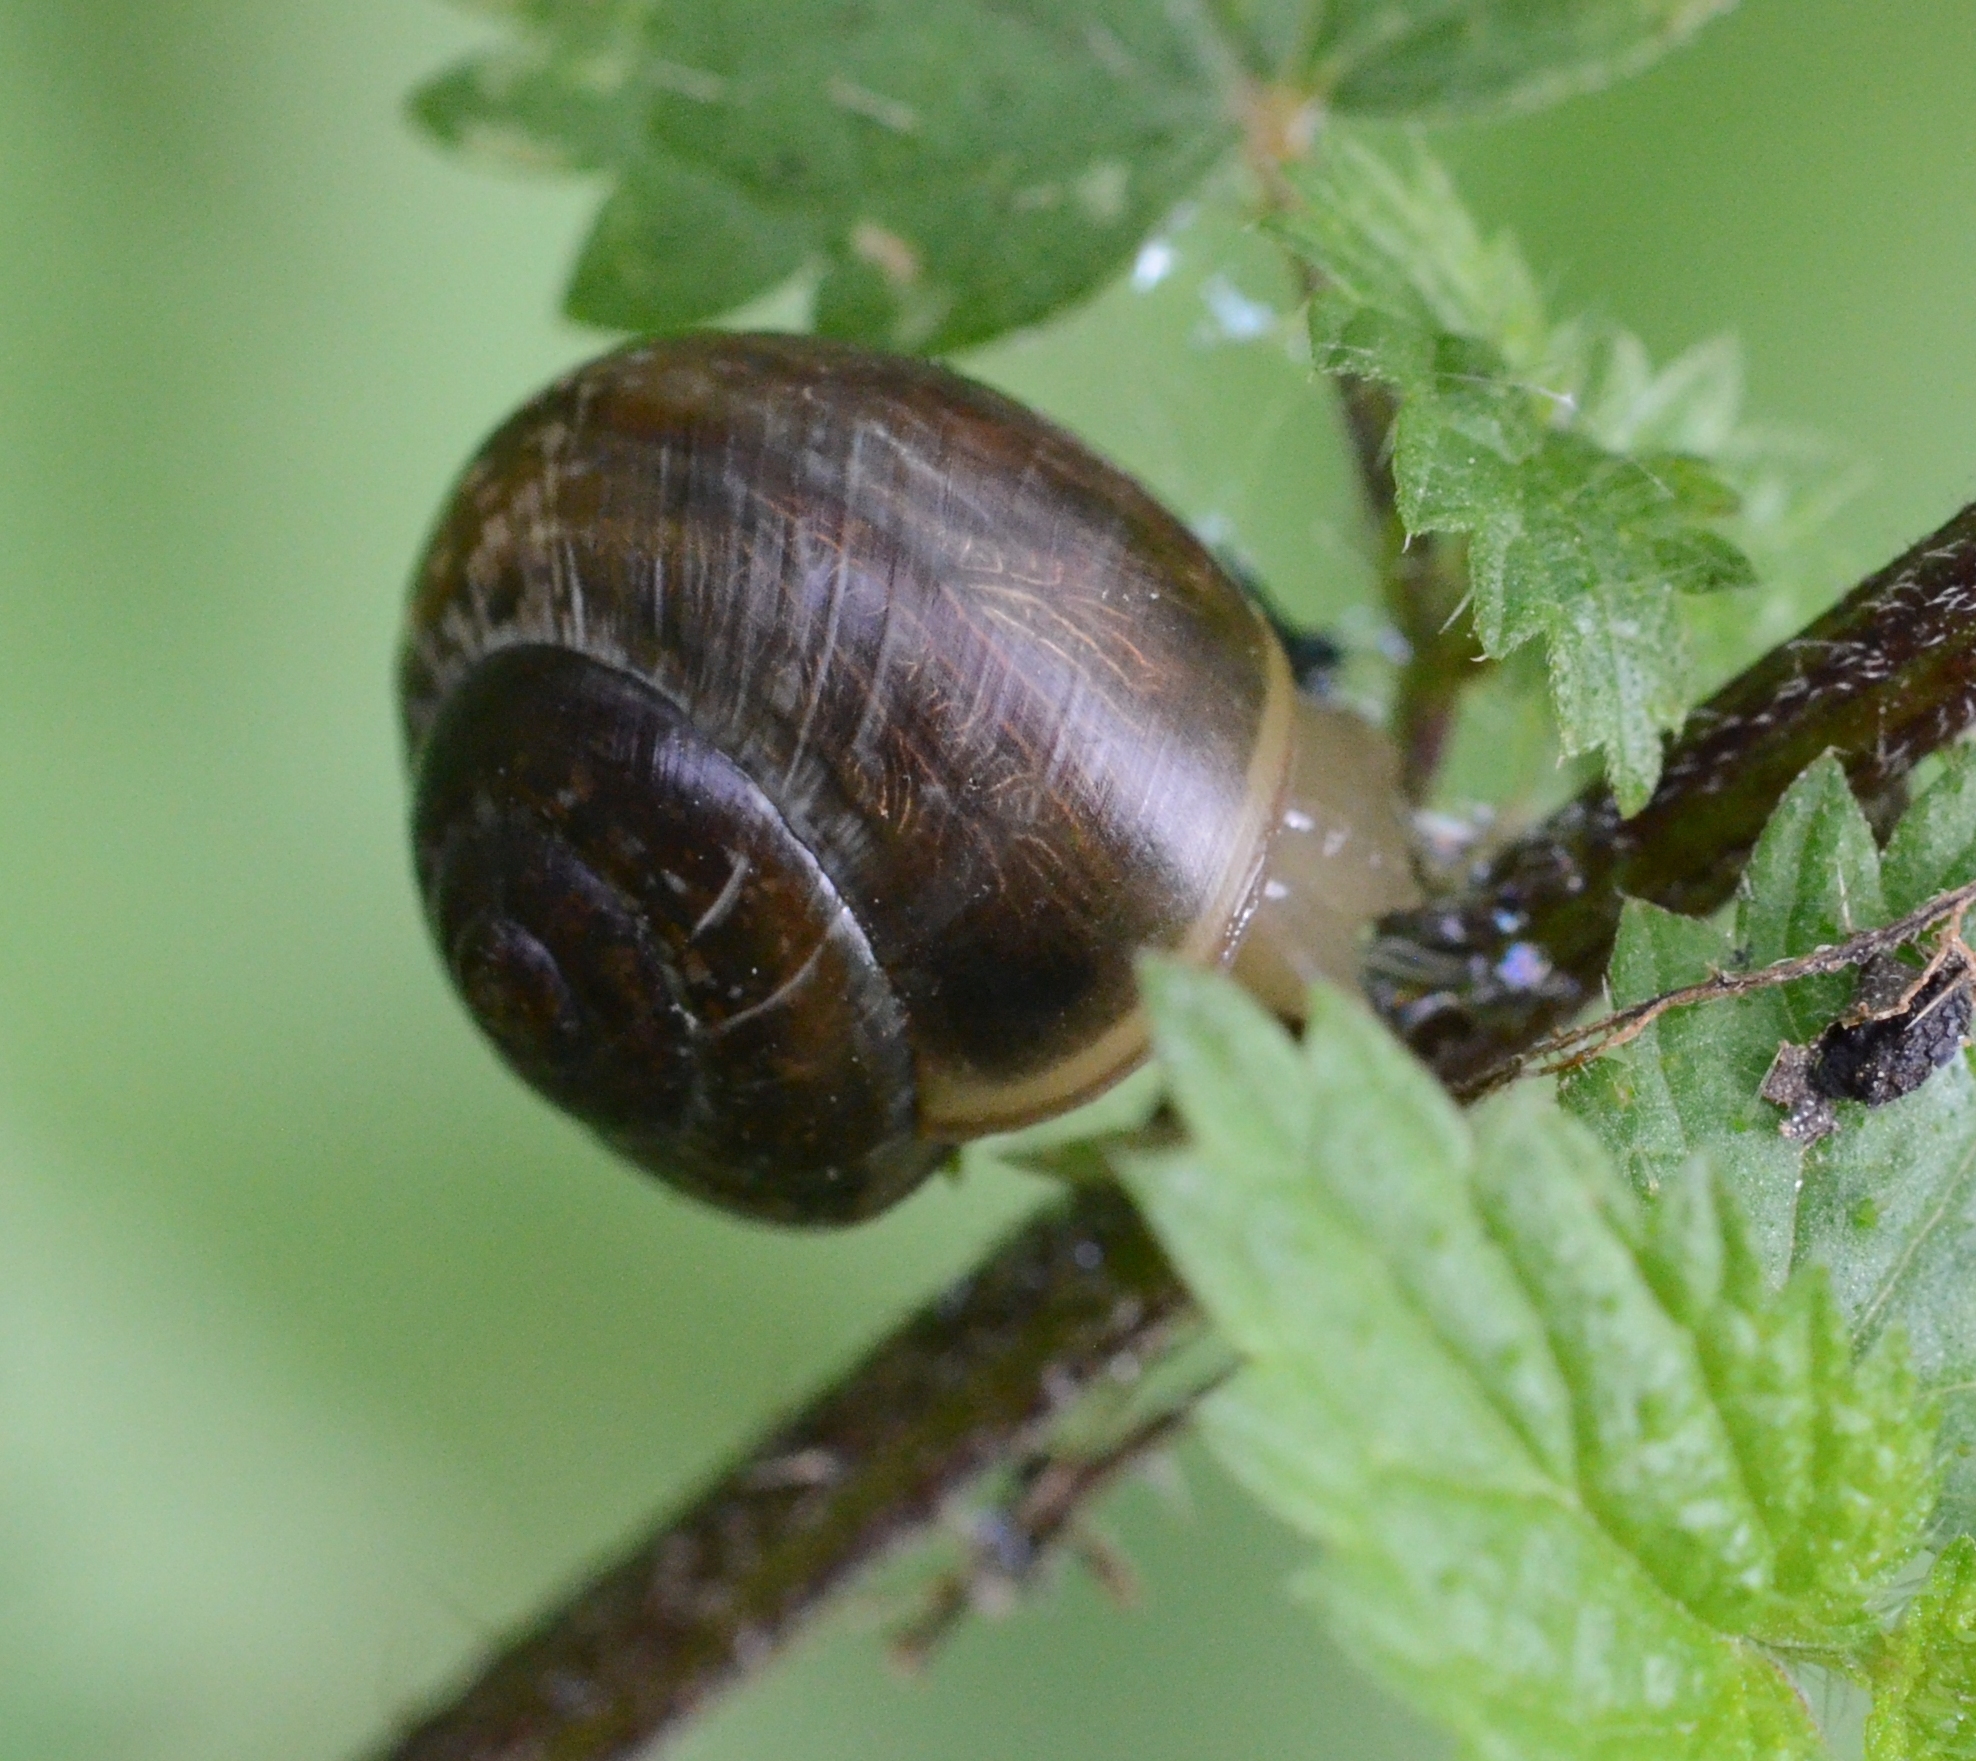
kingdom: Animalia
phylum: Mollusca
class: Gastropoda
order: Stylommatophora
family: Helicidae
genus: Arianta
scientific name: Arianta arbustorum
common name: Copse snail
